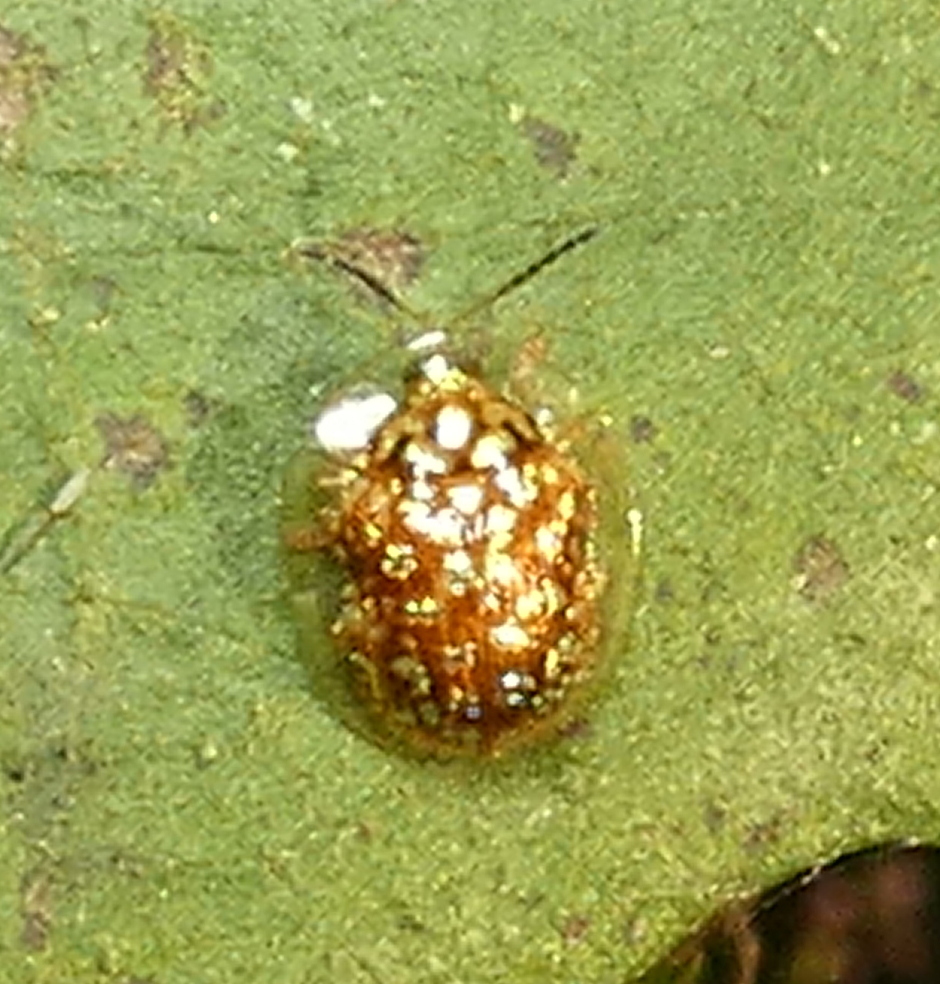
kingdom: Animalia
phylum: Arthropoda
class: Insecta
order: Coleoptera
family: Chrysomelidae
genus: Cteisella
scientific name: Cteisella guttigera
